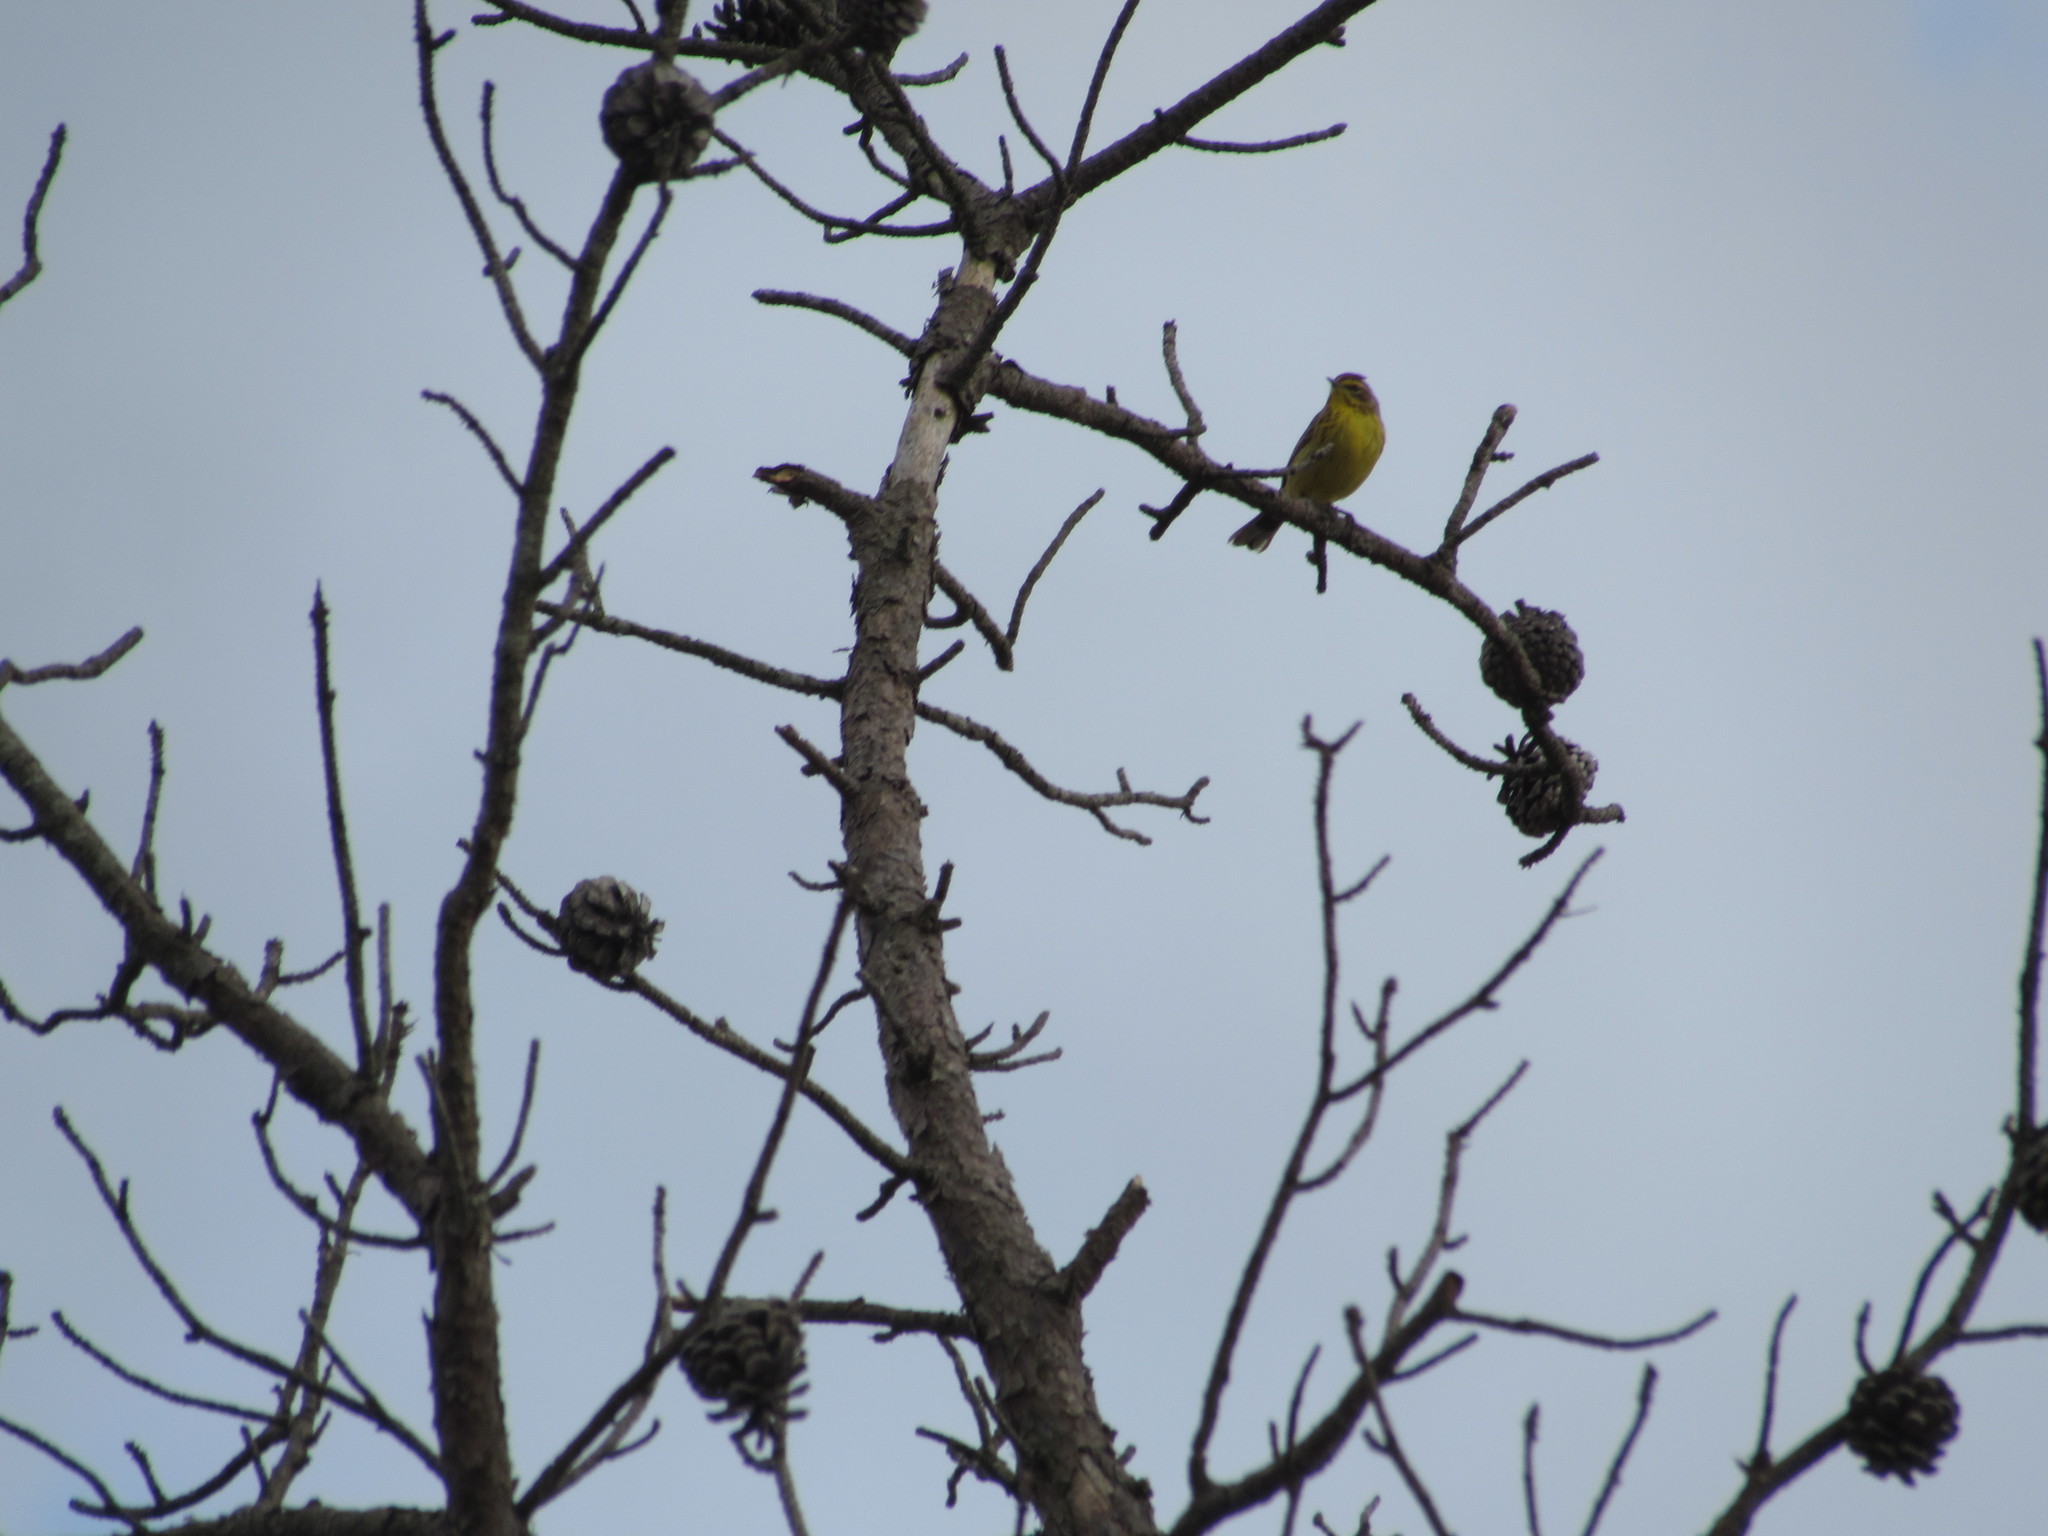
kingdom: Animalia
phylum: Chordata
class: Aves
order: Passeriformes
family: Parulidae
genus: Setophaga
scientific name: Setophaga palmarum
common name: Palm warbler
